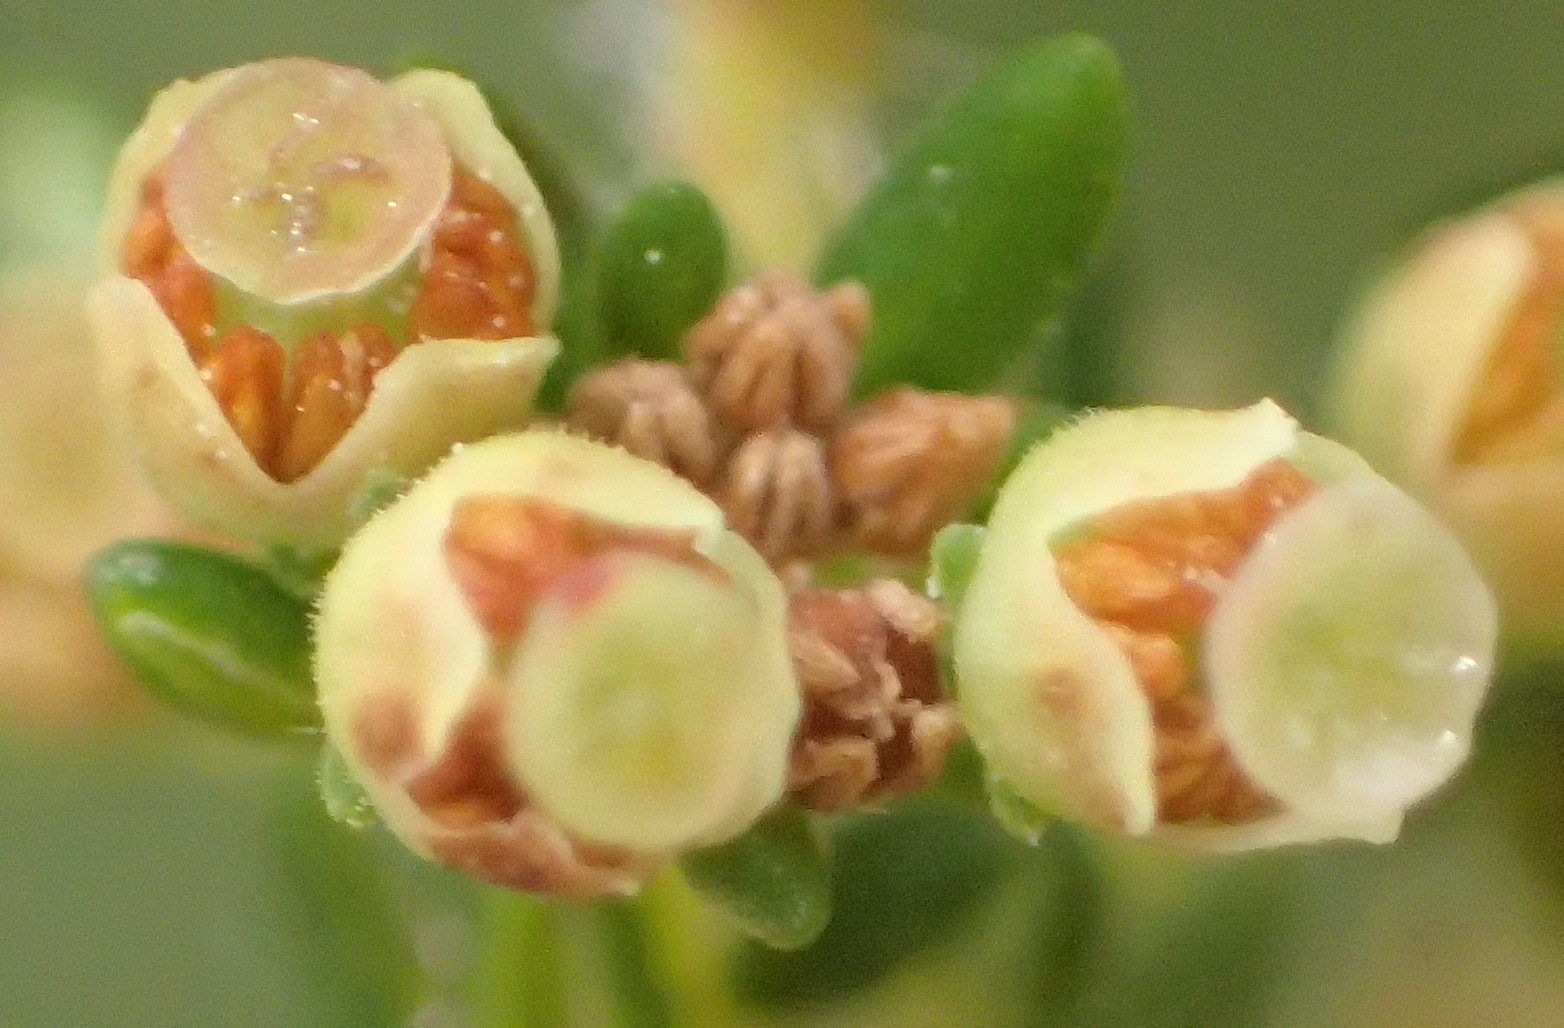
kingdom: Plantae
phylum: Tracheophyta
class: Magnoliopsida
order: Ericales
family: Ericaceae
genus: Erica
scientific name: Erica leucopelta
